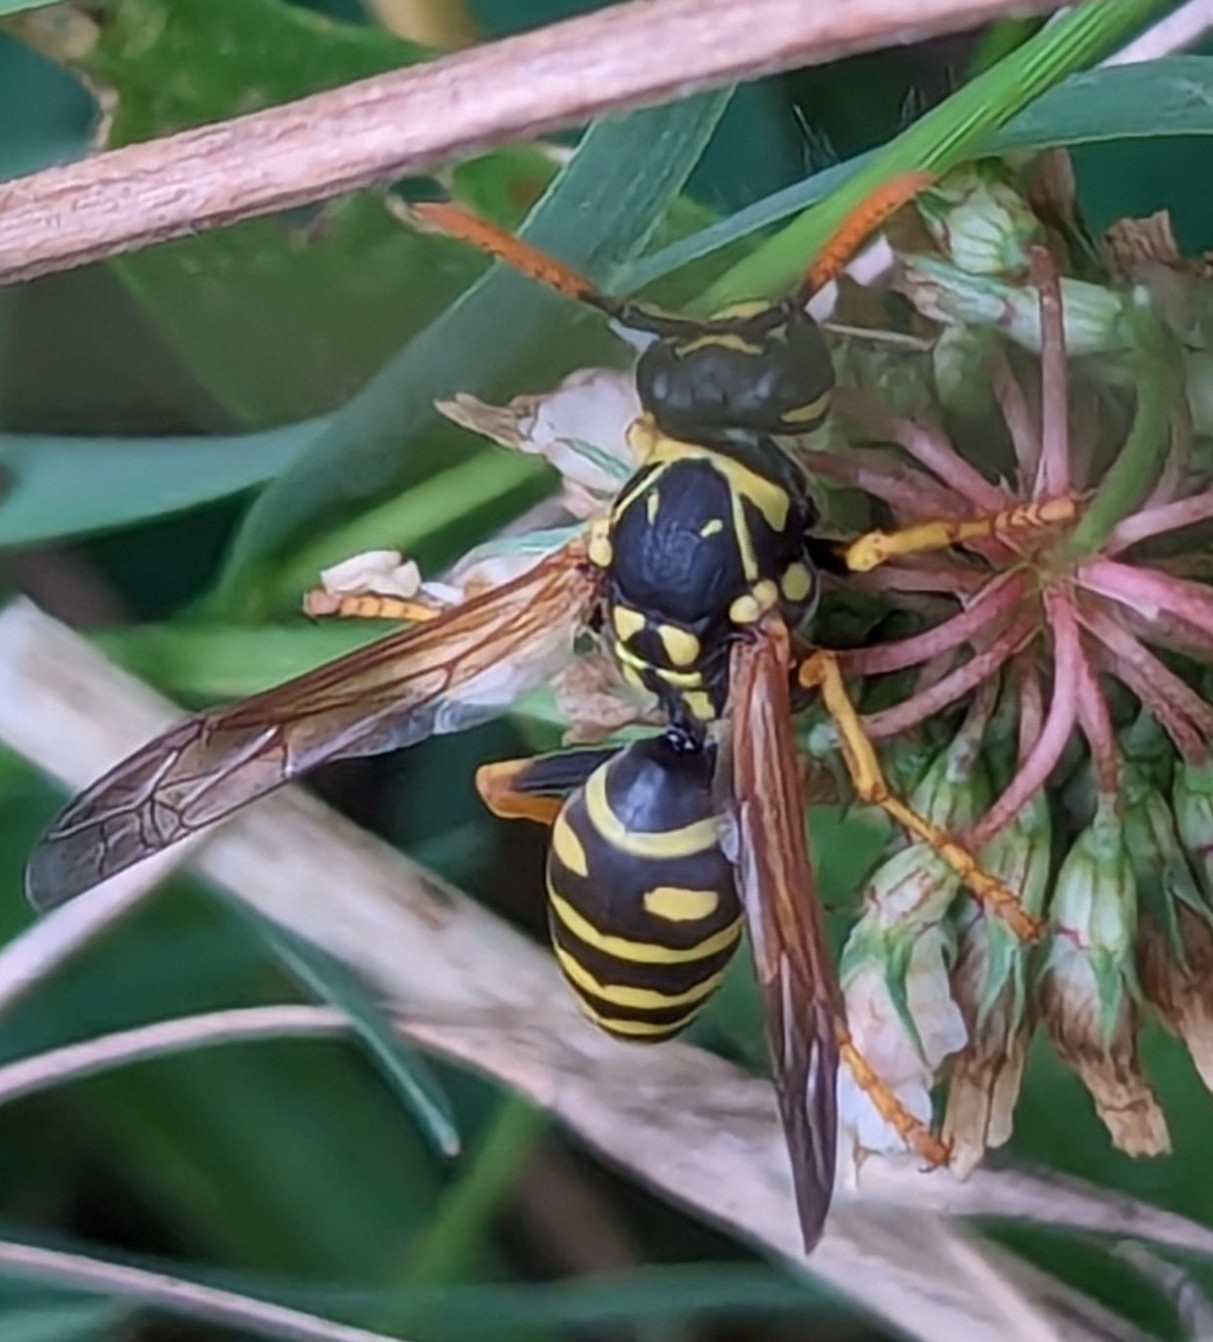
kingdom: Animalia
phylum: Arthropoda
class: Insecta
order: Hymenoptera
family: Eumenidae
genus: Polistes
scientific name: Polistes dominula
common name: Paper wasp
